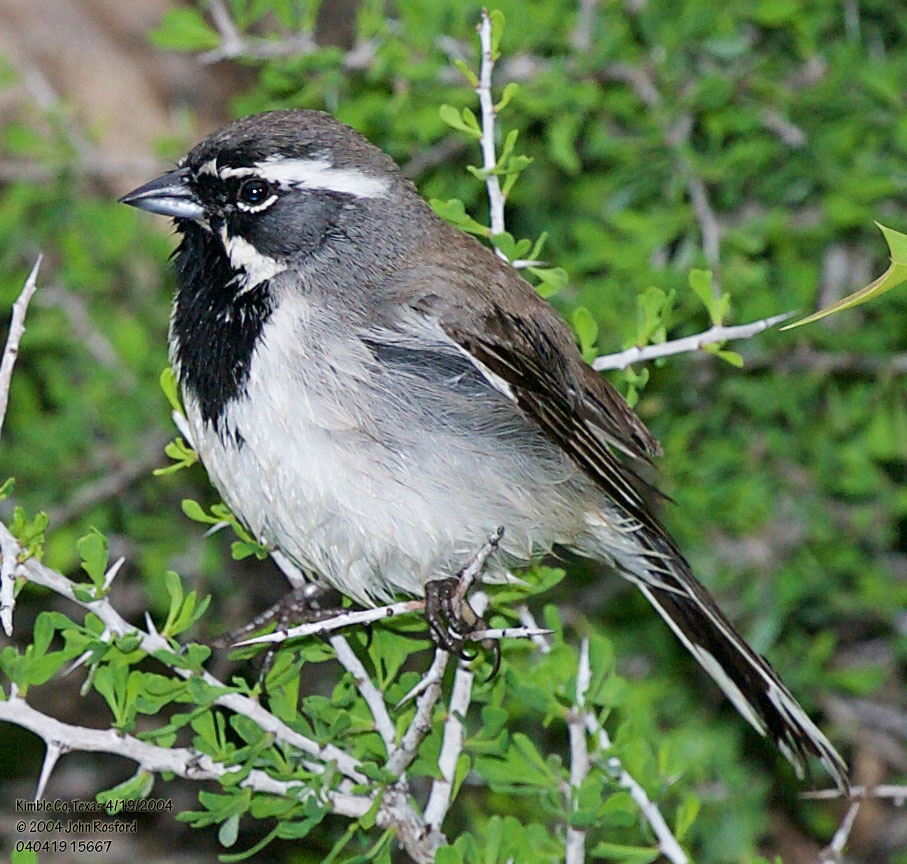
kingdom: Animalia
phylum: Chordata
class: Aves
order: Passeriformes
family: Passerellidae
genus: Amphispiza
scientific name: Amphispiza bilineata
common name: Black-throated sparrow
